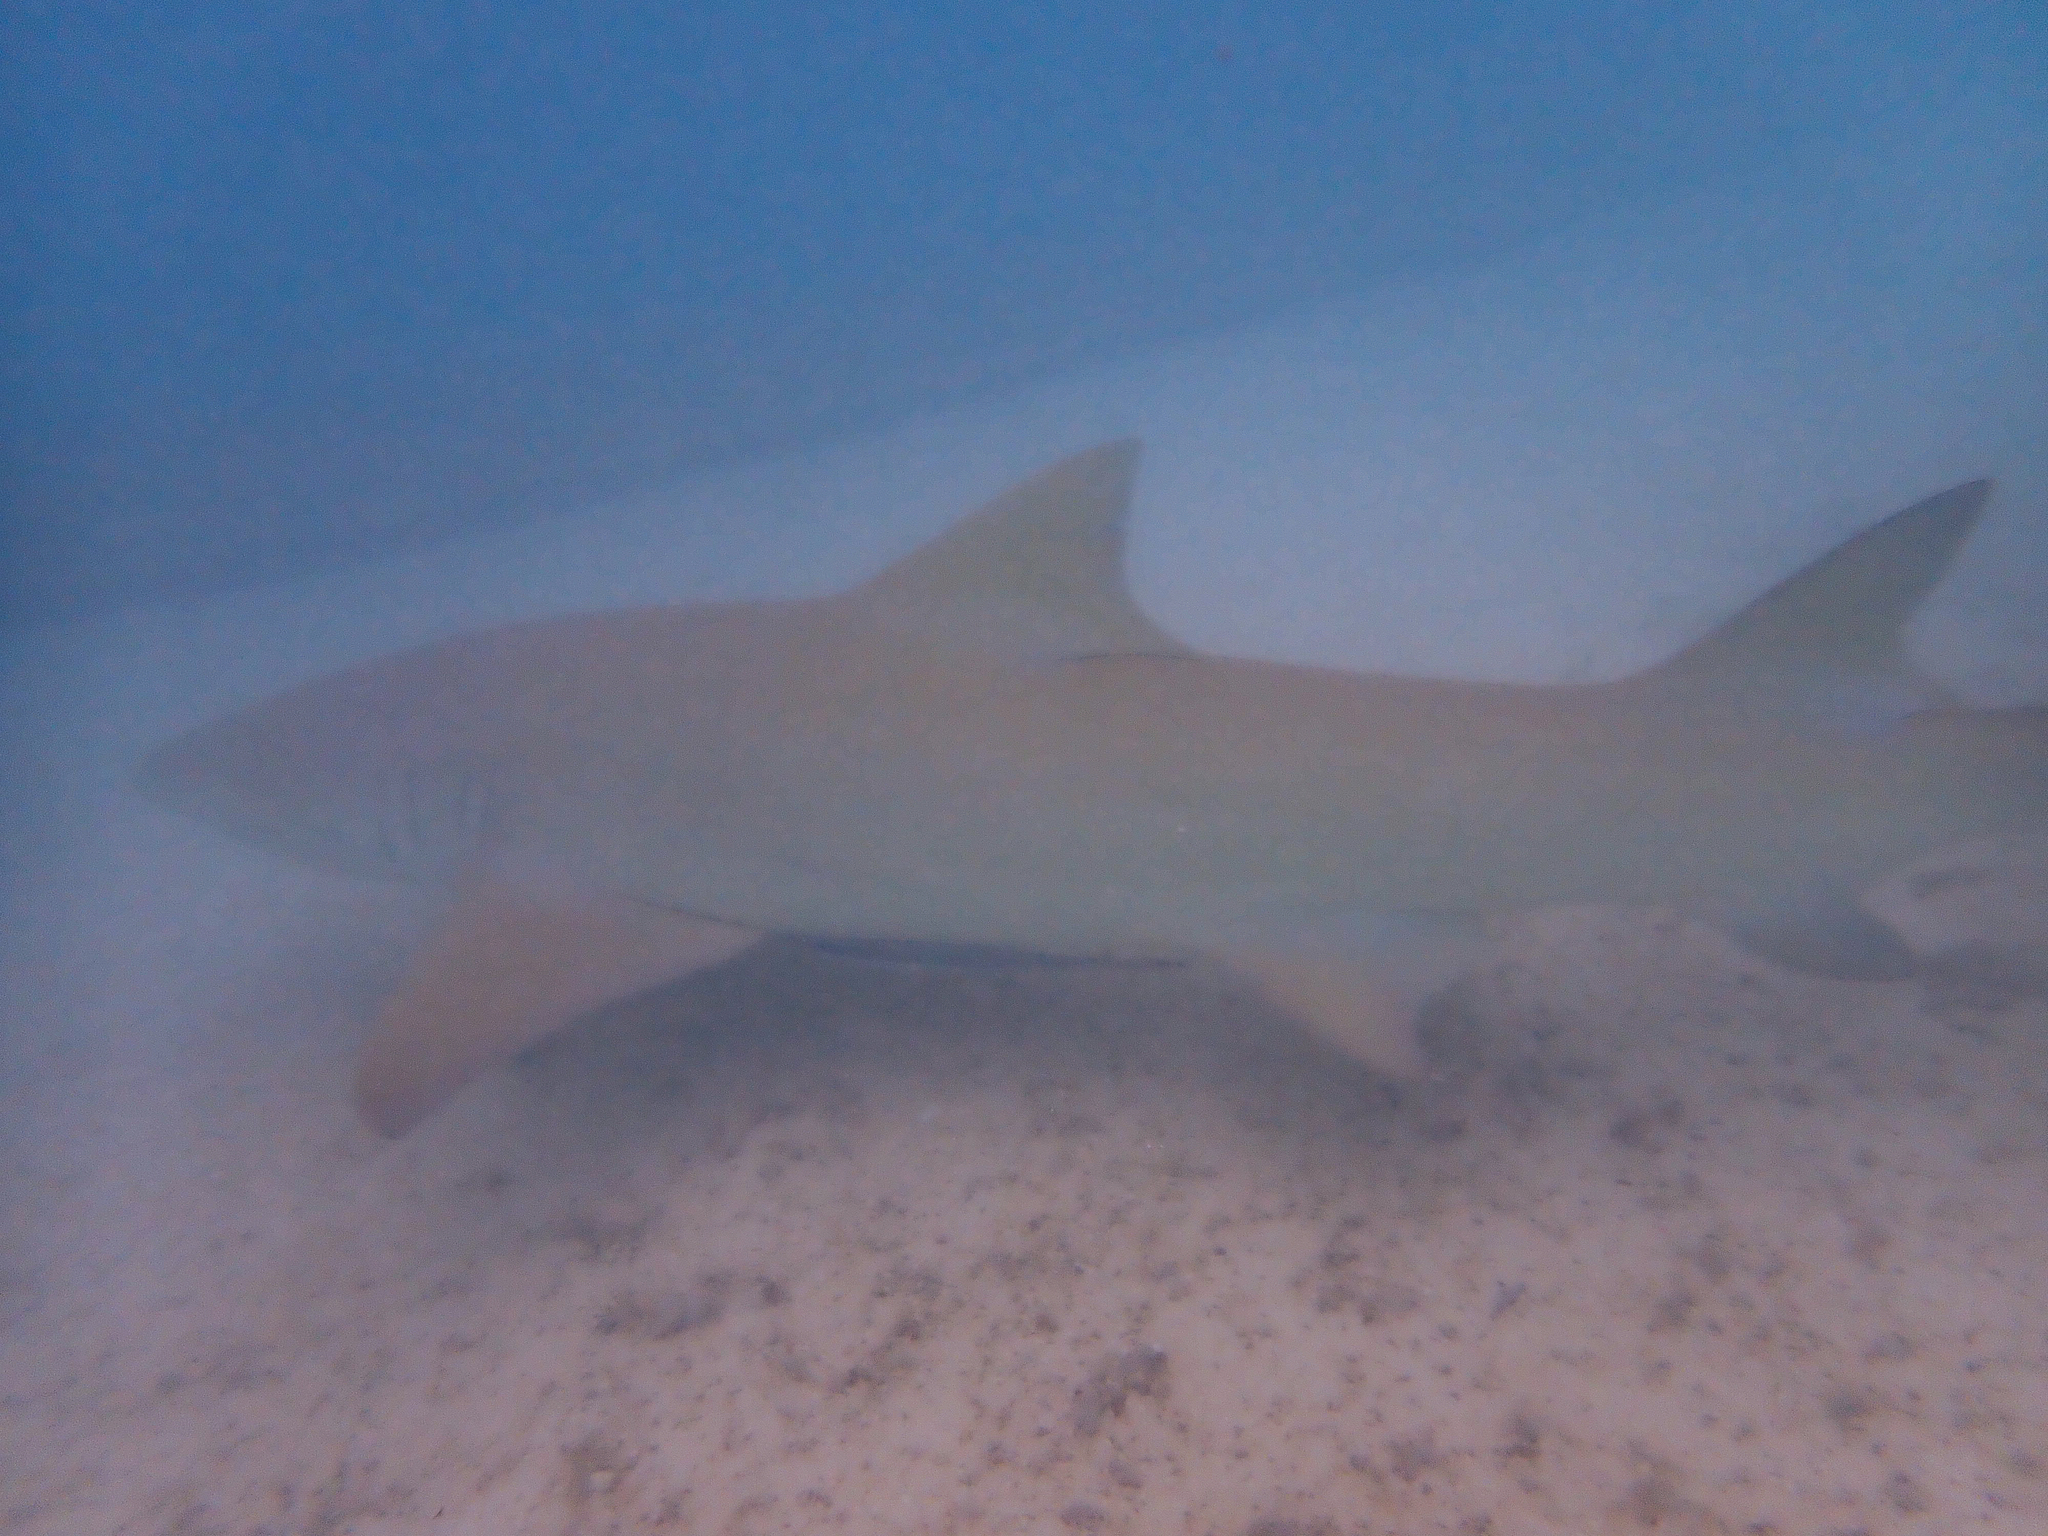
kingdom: Animalia
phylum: Chordata
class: Elasmobranchii
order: Carcharhiniformes
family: Carcharhinidae
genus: Negaprion
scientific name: Negaprion acutidens
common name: Lemon shark
